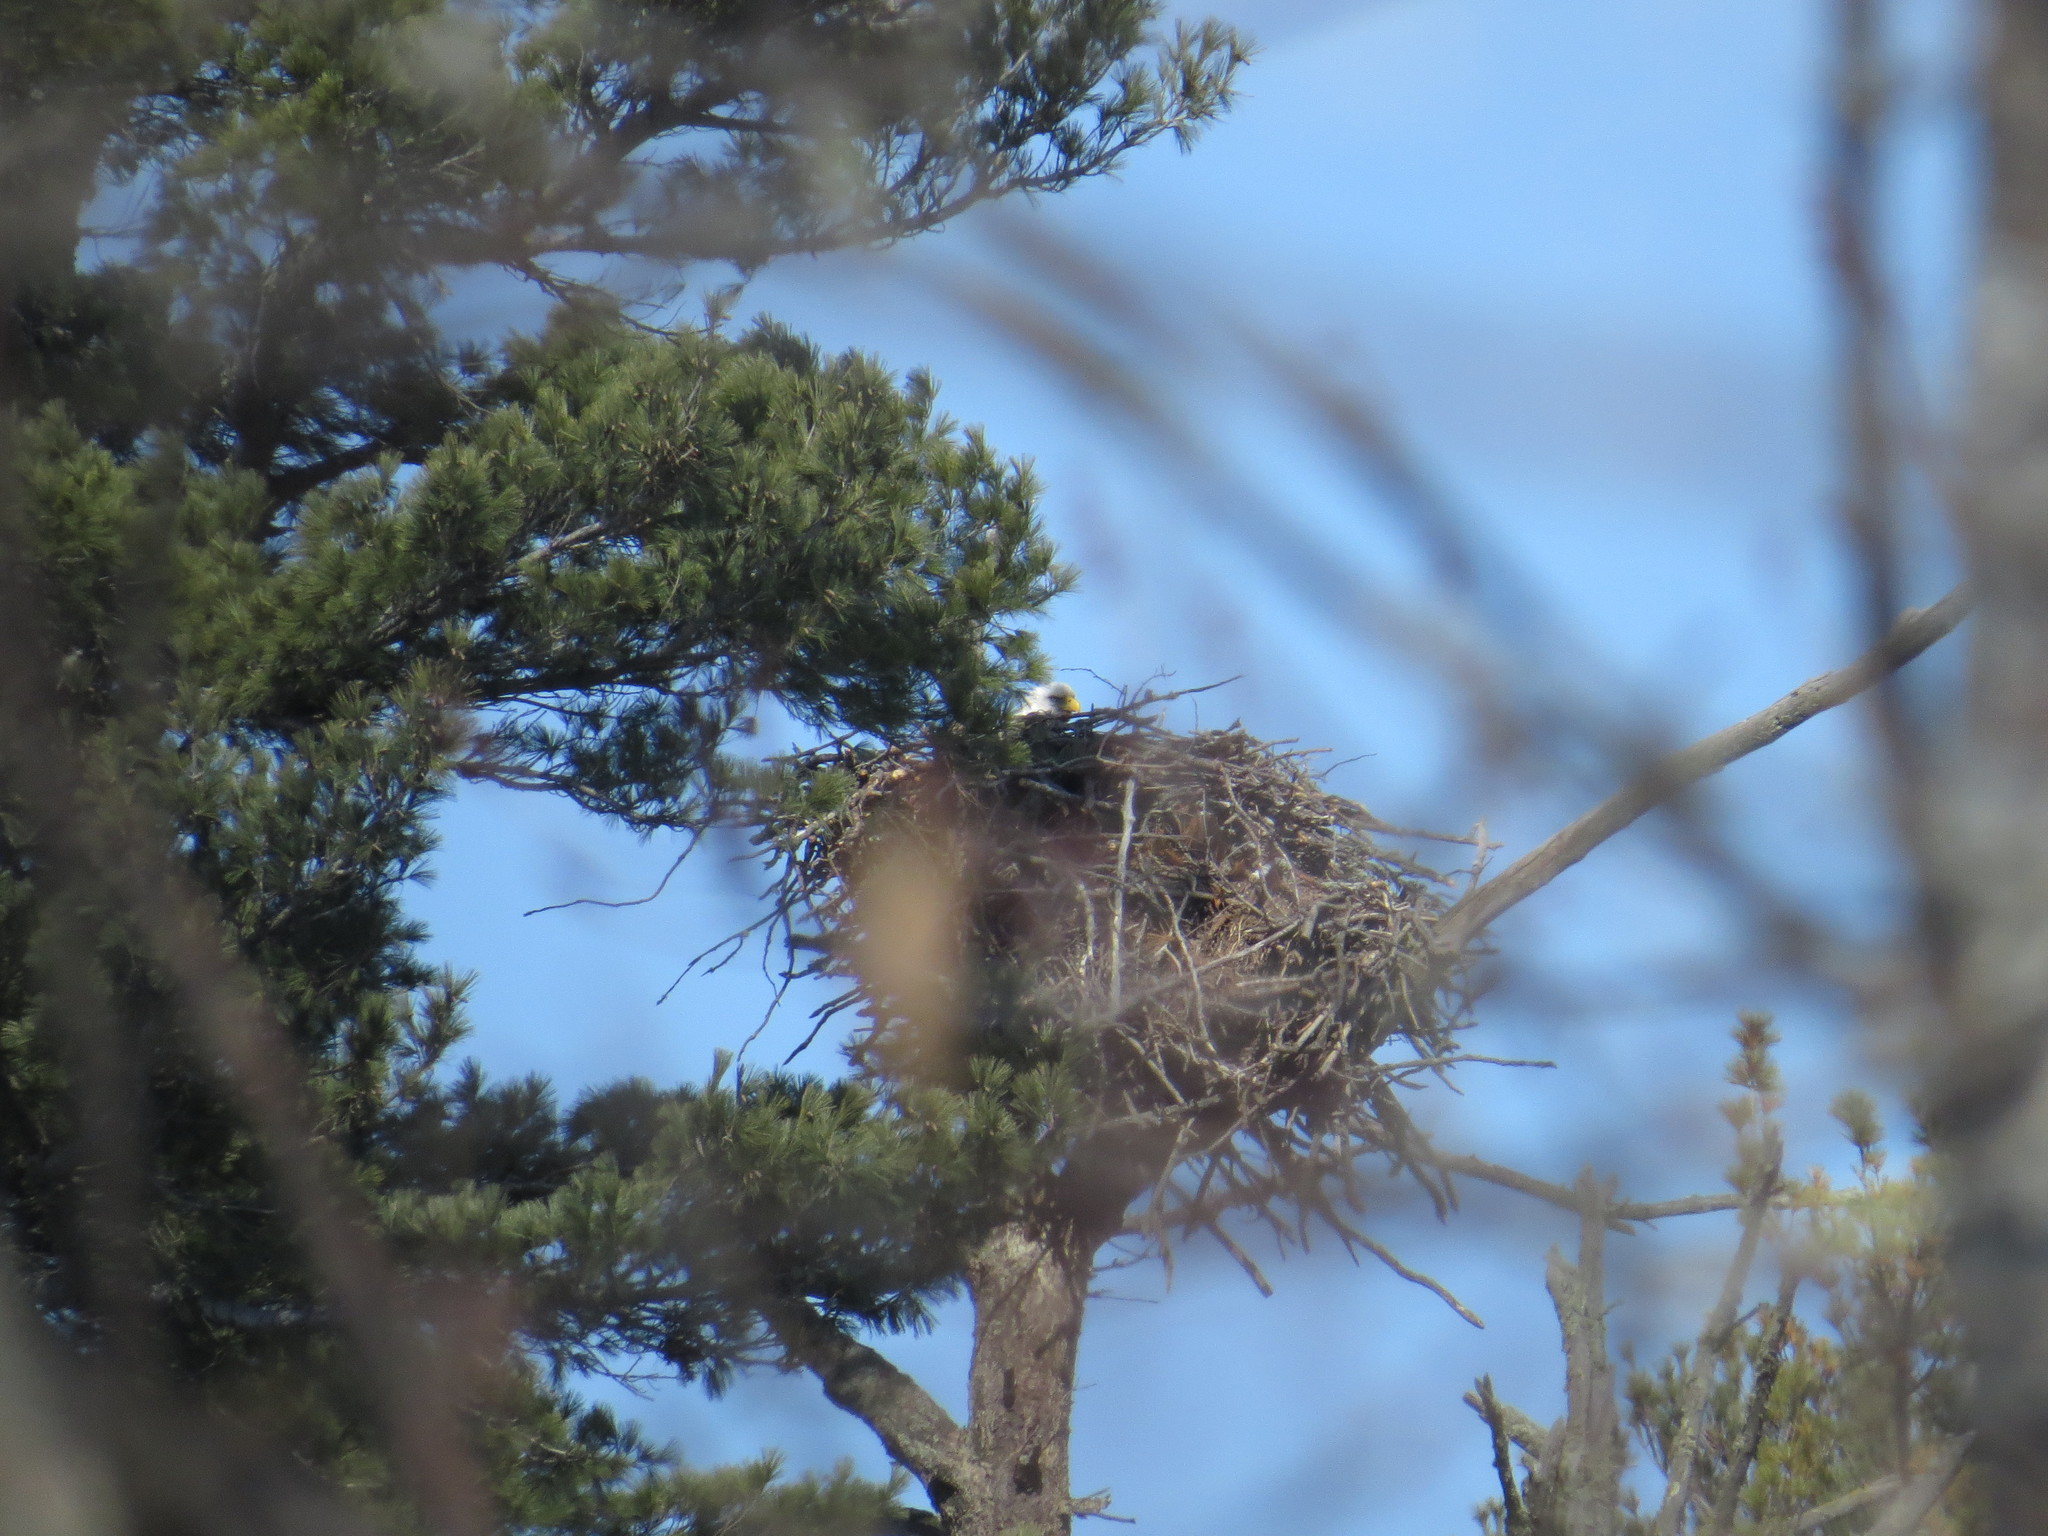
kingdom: Animalia
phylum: Chordata
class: Aves
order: Accipitriformes
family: Accipitridae
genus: Haliaeetus
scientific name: Haliaeetus leucocephalus
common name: Bald eagle
